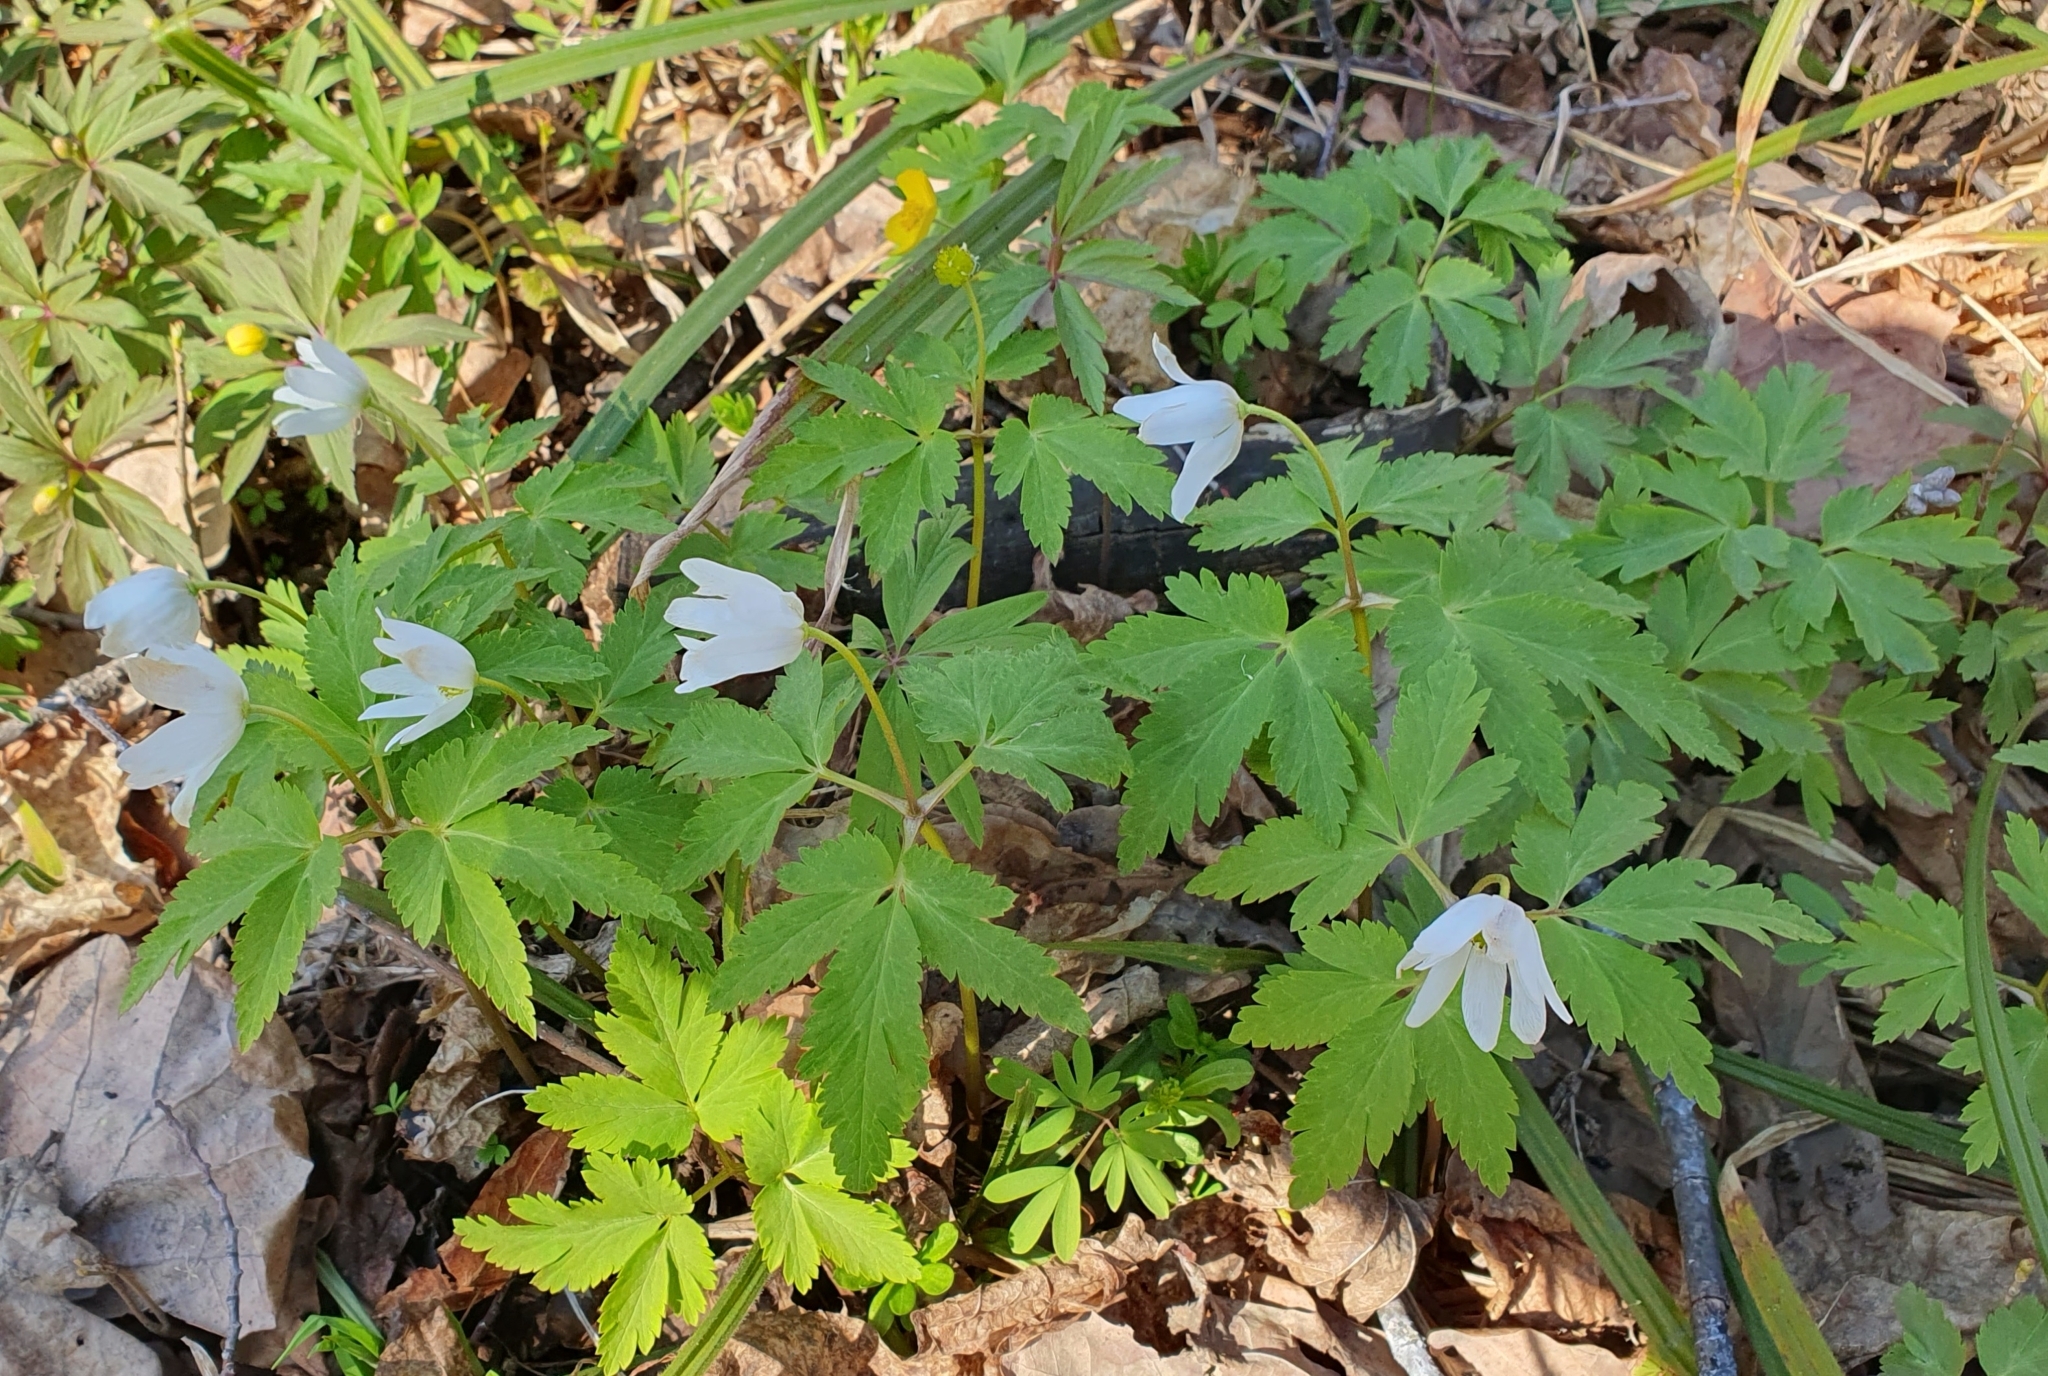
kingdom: Plantae
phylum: Tracheophyta
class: Magnoliopsida
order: Ranunculales
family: Ranunculaceae
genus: Anemone
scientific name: Anemone altaica
